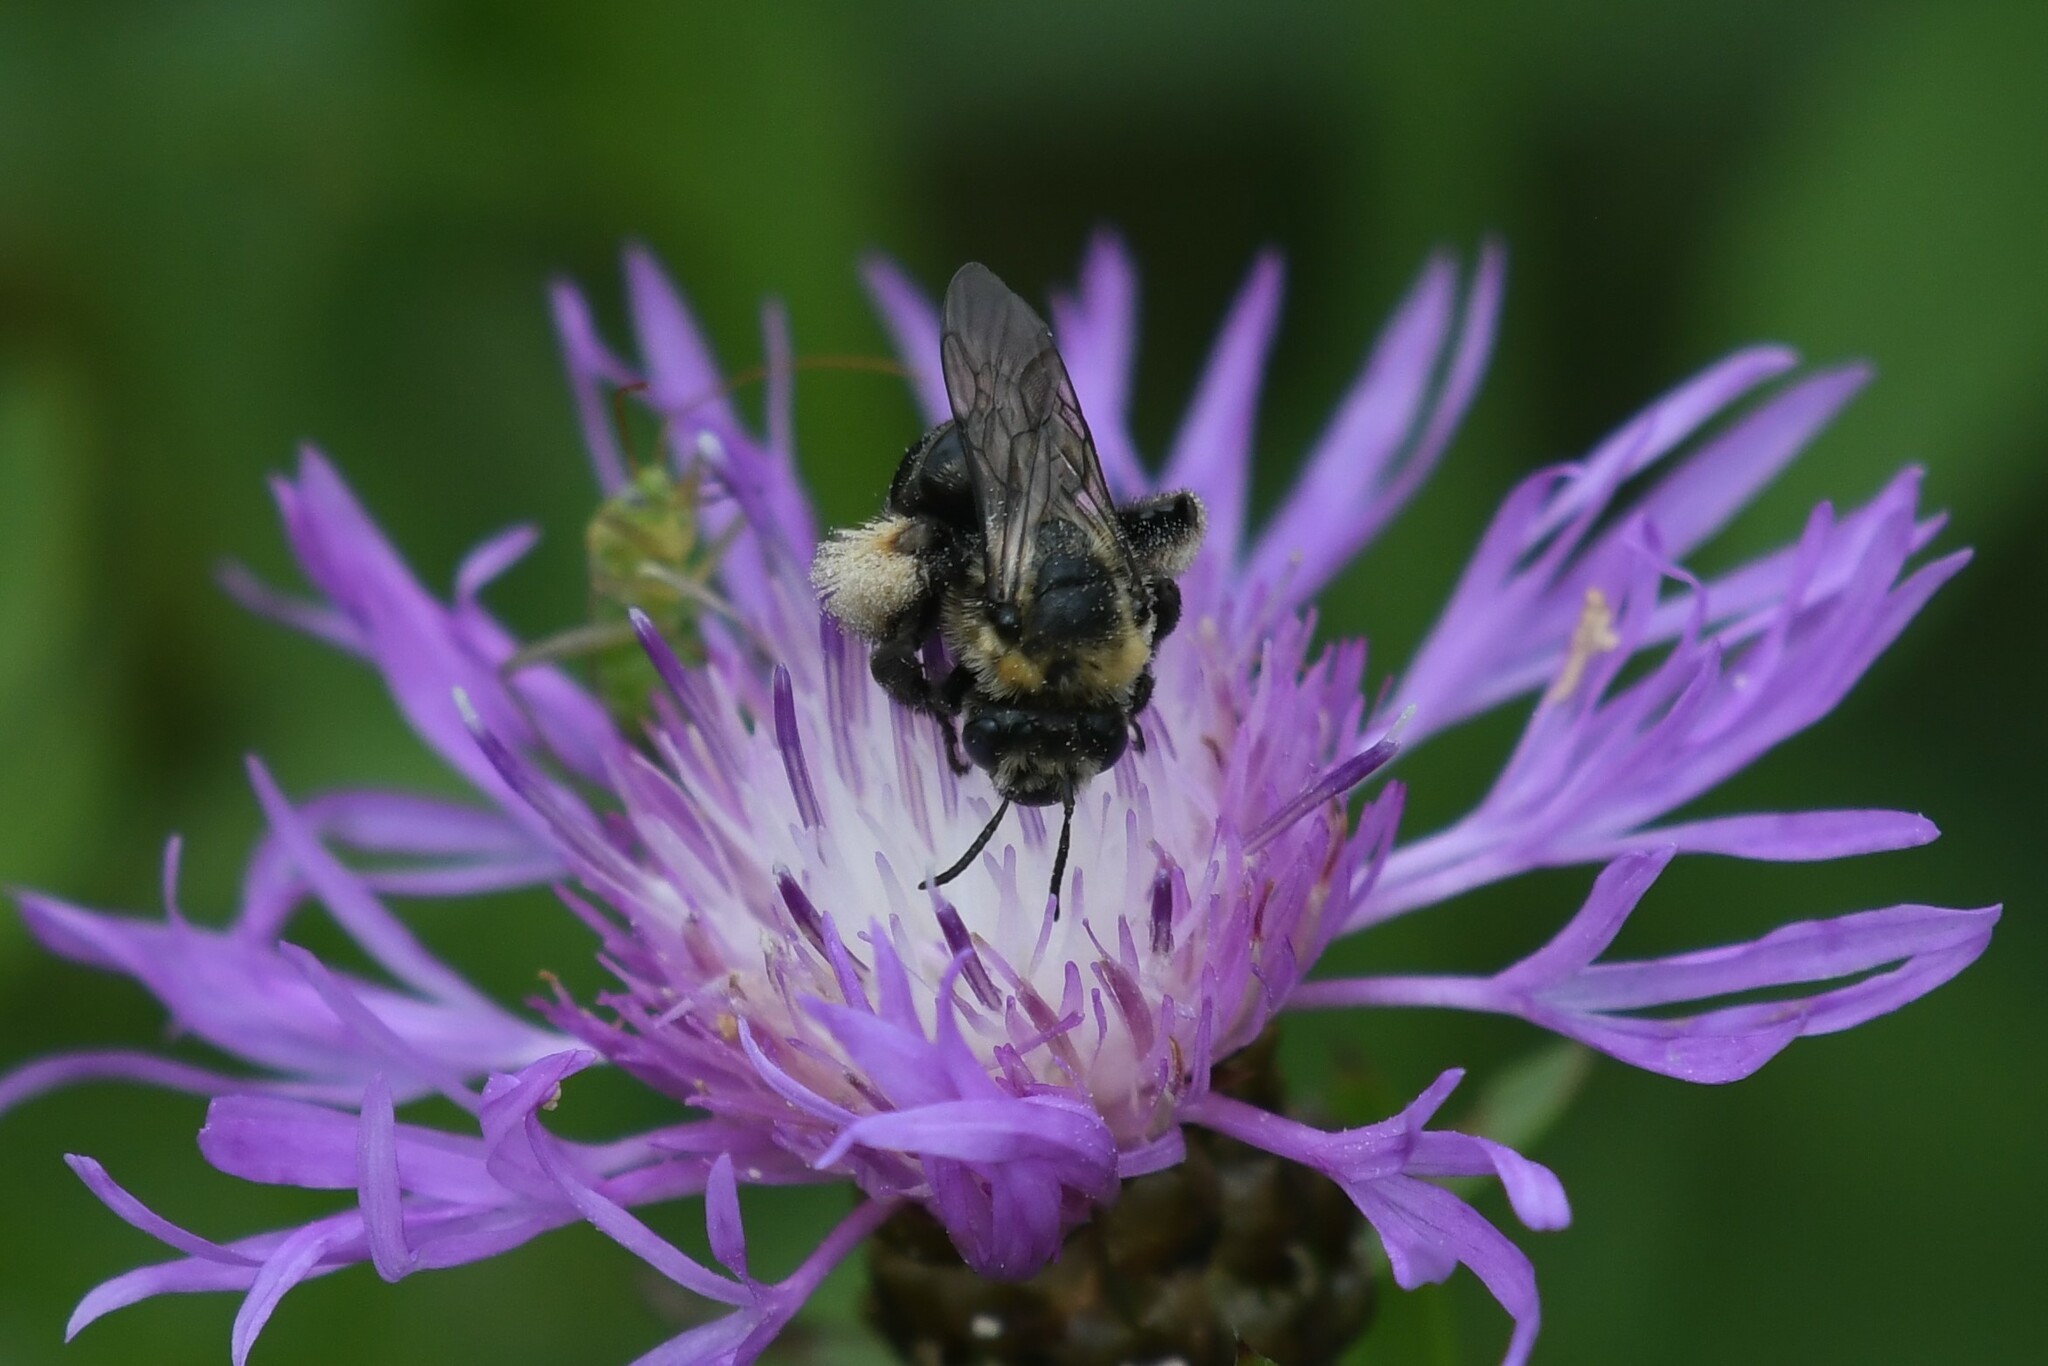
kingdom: Animalia
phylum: Arthropoda
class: Insecta
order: Hymenoptera
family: Apidae
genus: Melissodes
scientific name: Melissodes desponsus
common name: Thistle long-horned bee
